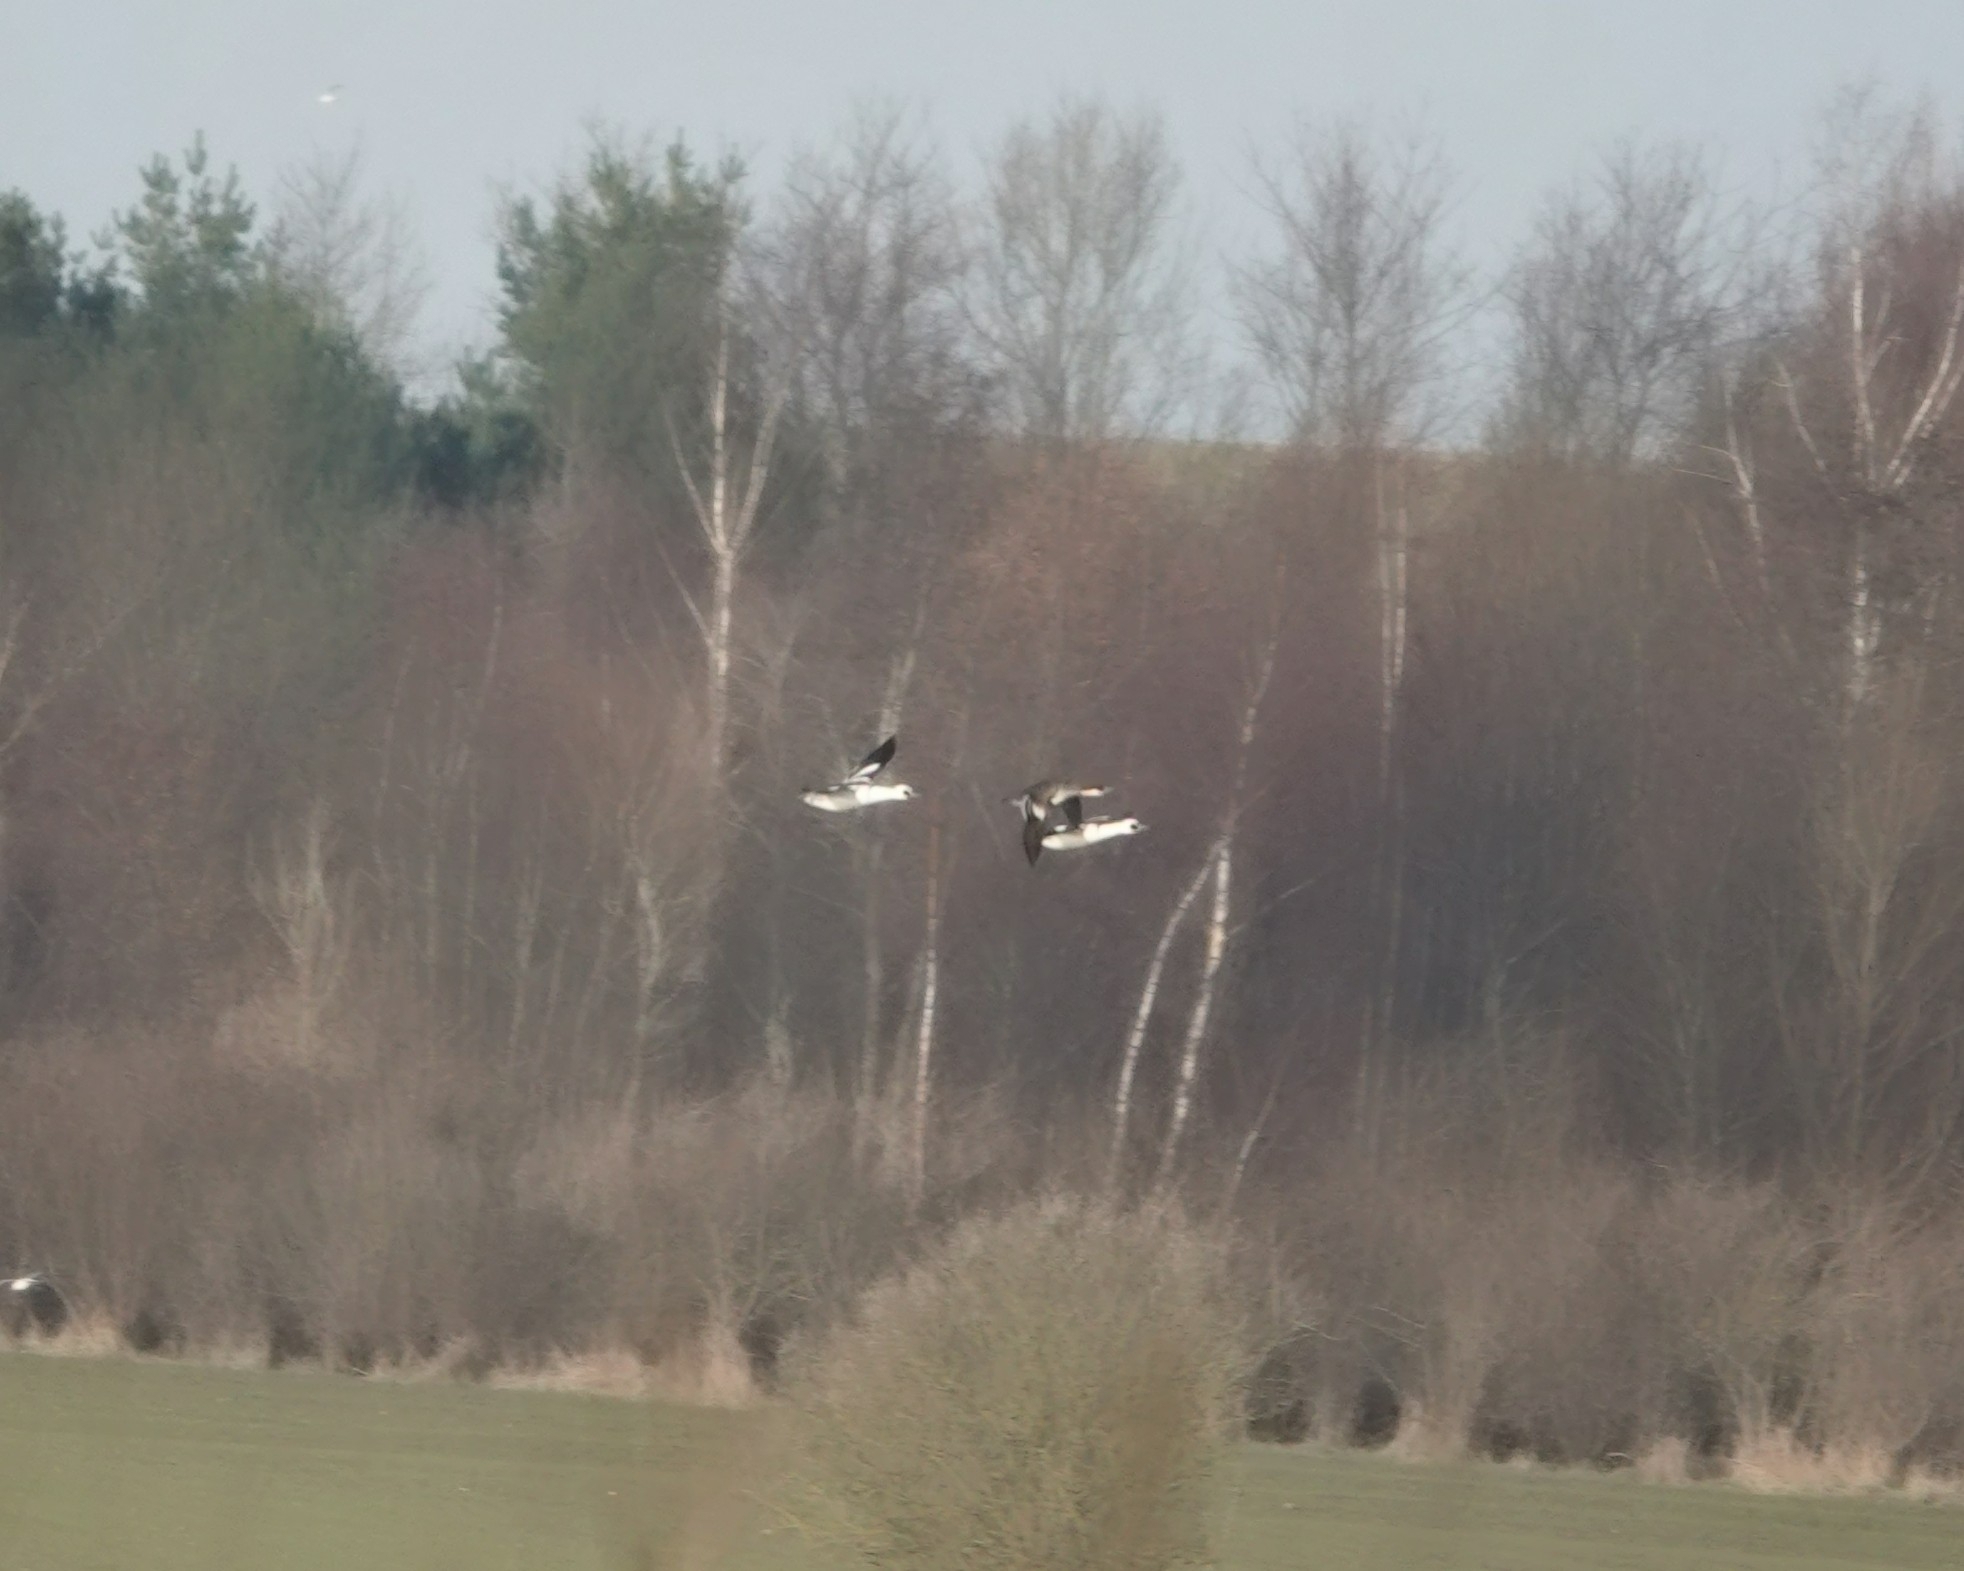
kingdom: Animalia
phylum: Chordata
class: Aves
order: Anseriformes
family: Anatidae
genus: Mergellus
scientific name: Mergellus albellus
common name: Smew
